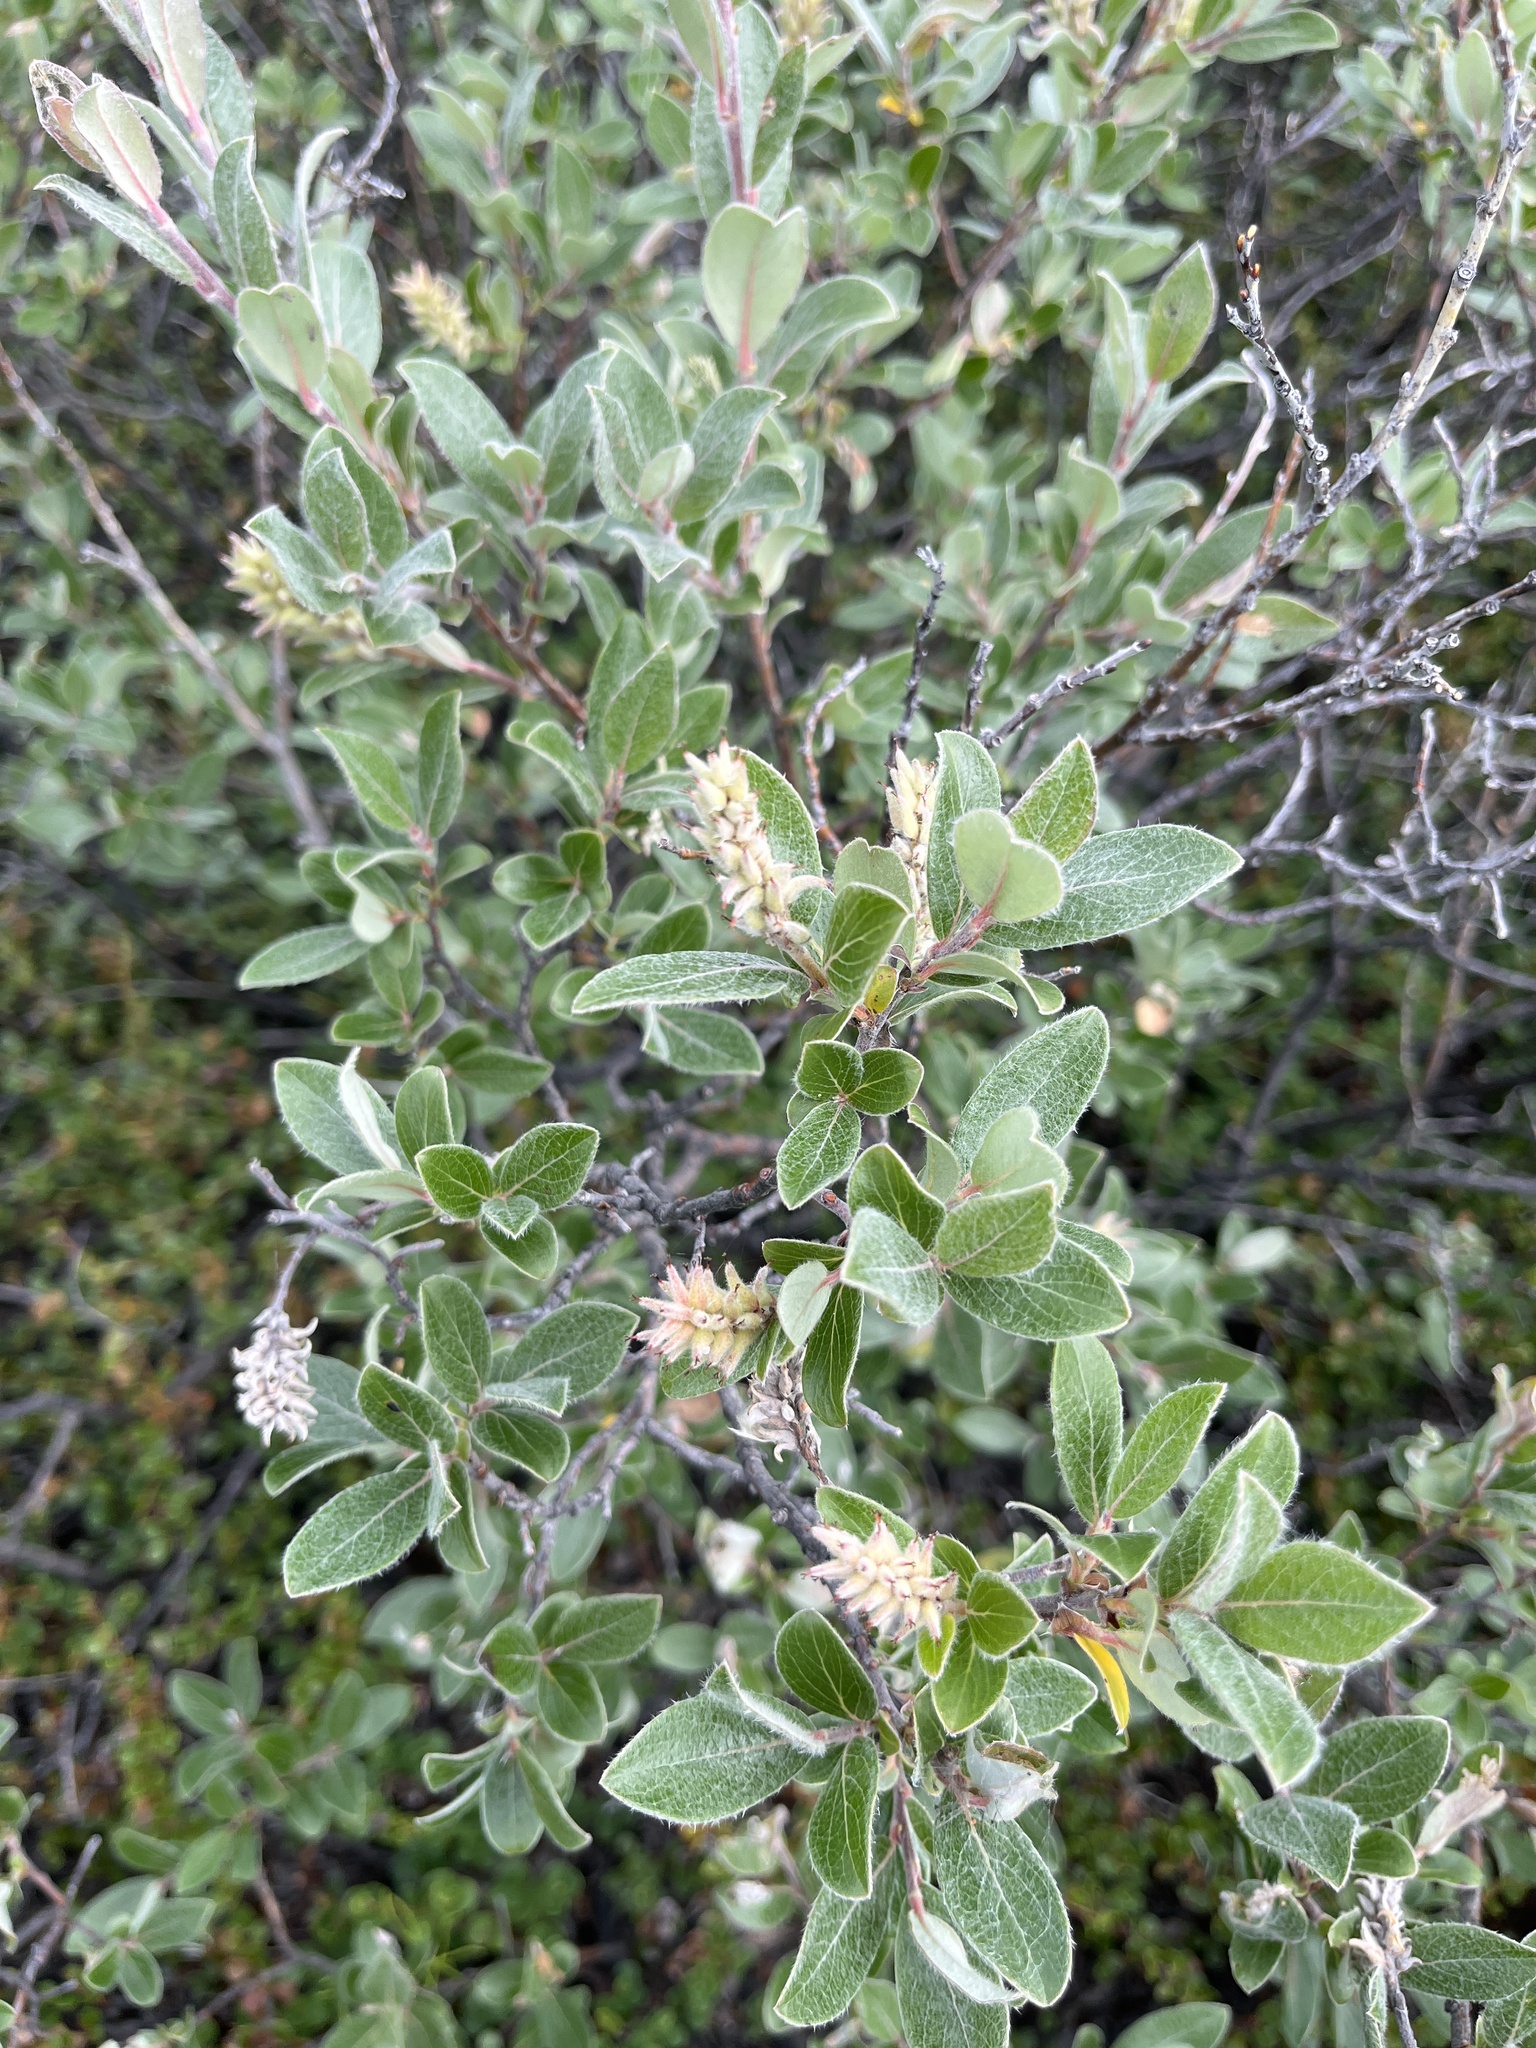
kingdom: Plantae
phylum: Tracheophyta
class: Magnoliopsida
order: Malpighiales
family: Salicaceae
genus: Salix
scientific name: Salix glauca
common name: Glaucous willow
